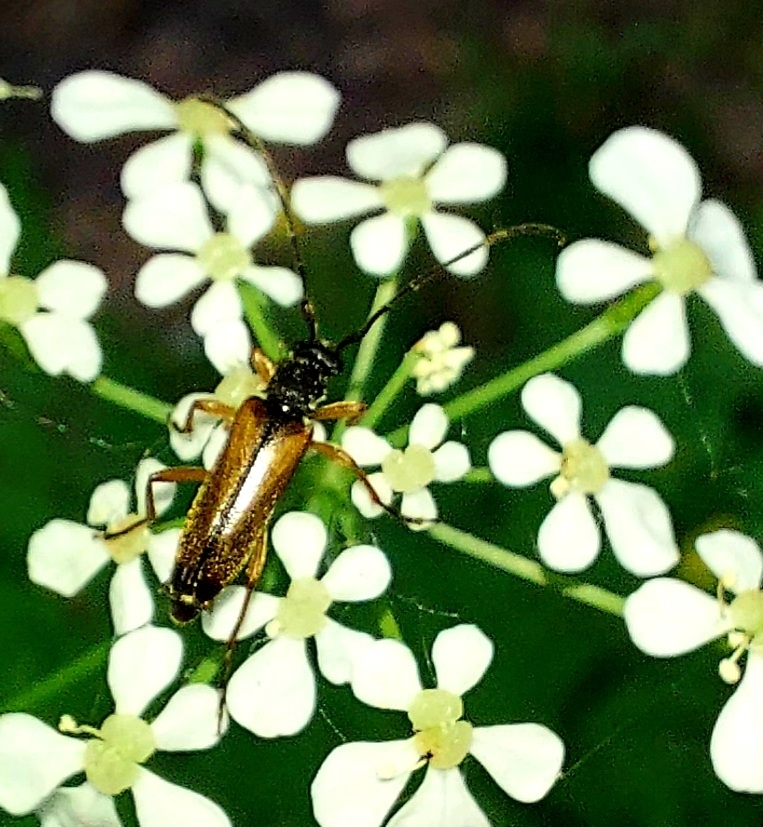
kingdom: Animalia
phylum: Arthropoda
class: Insecta
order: Coleoptera
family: Cerambycidae
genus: Alosterna
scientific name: Alosterna tabacicolor
